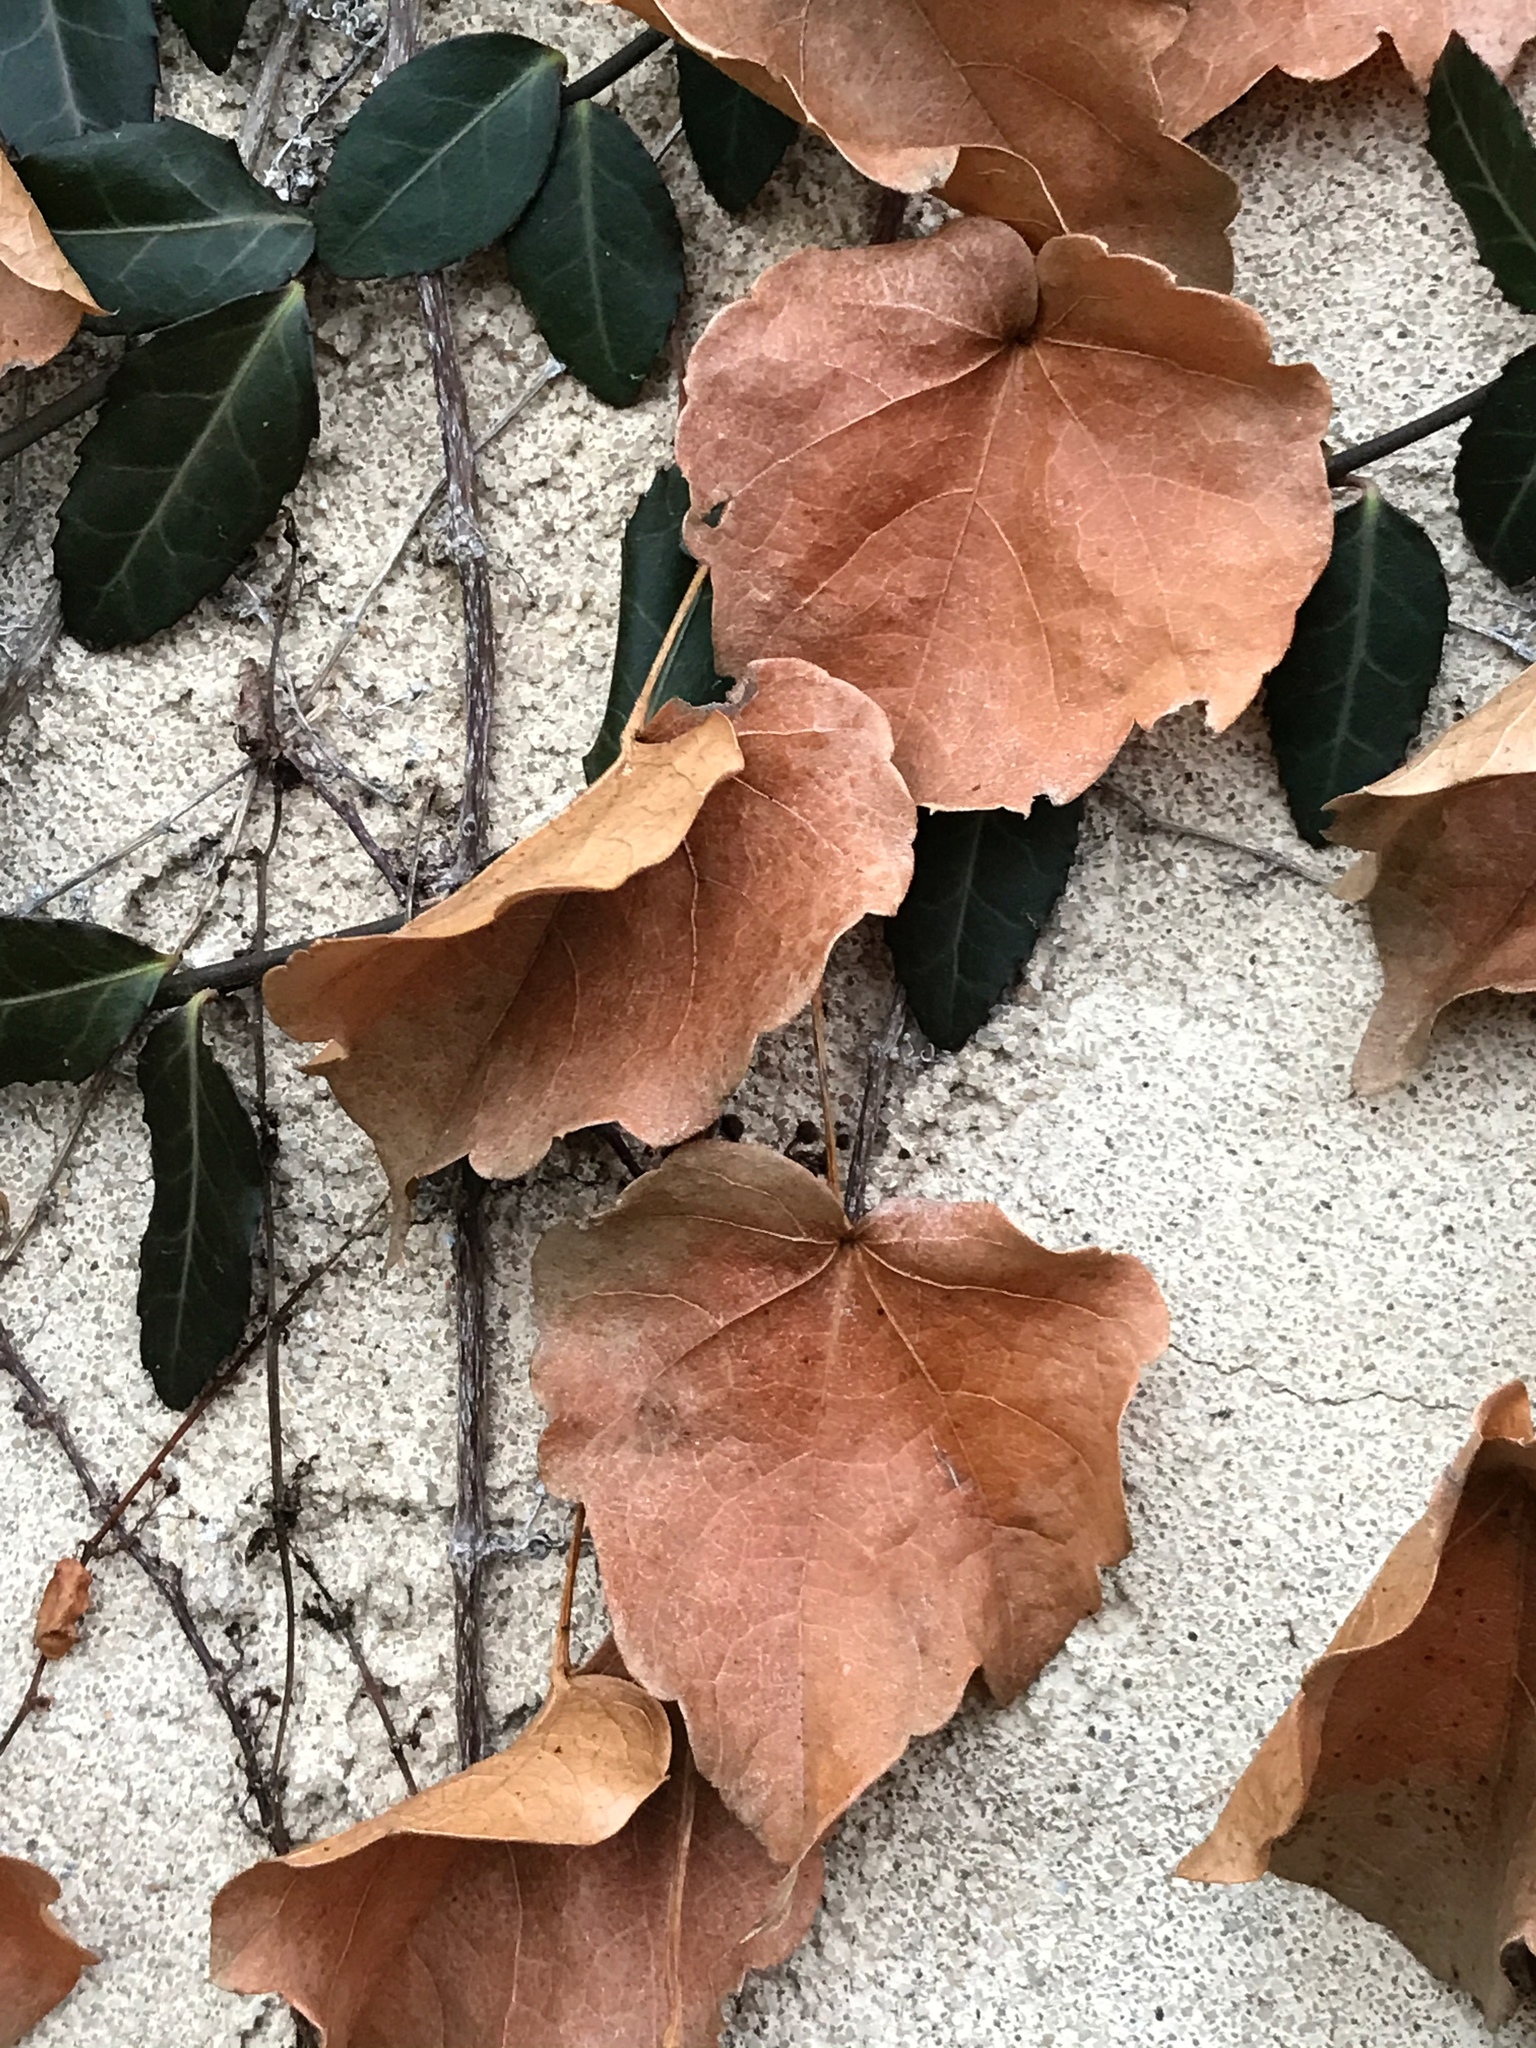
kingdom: Plantae
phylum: Tracheophyta
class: Magnoliopsida
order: Vitales
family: Vitaceae
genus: Parthenocissus
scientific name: Parthenocissus tricuspidata
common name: Boston ivy
